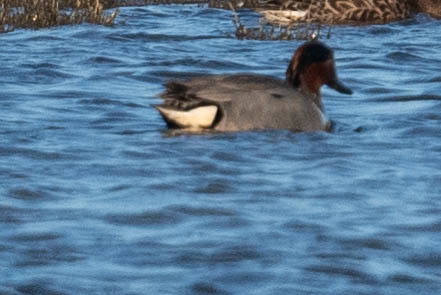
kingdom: Animalia
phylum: Chordata
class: Aves
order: Anseriformes
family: Anatidae
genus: Anas
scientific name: Anas crecca
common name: Eurasian teal
